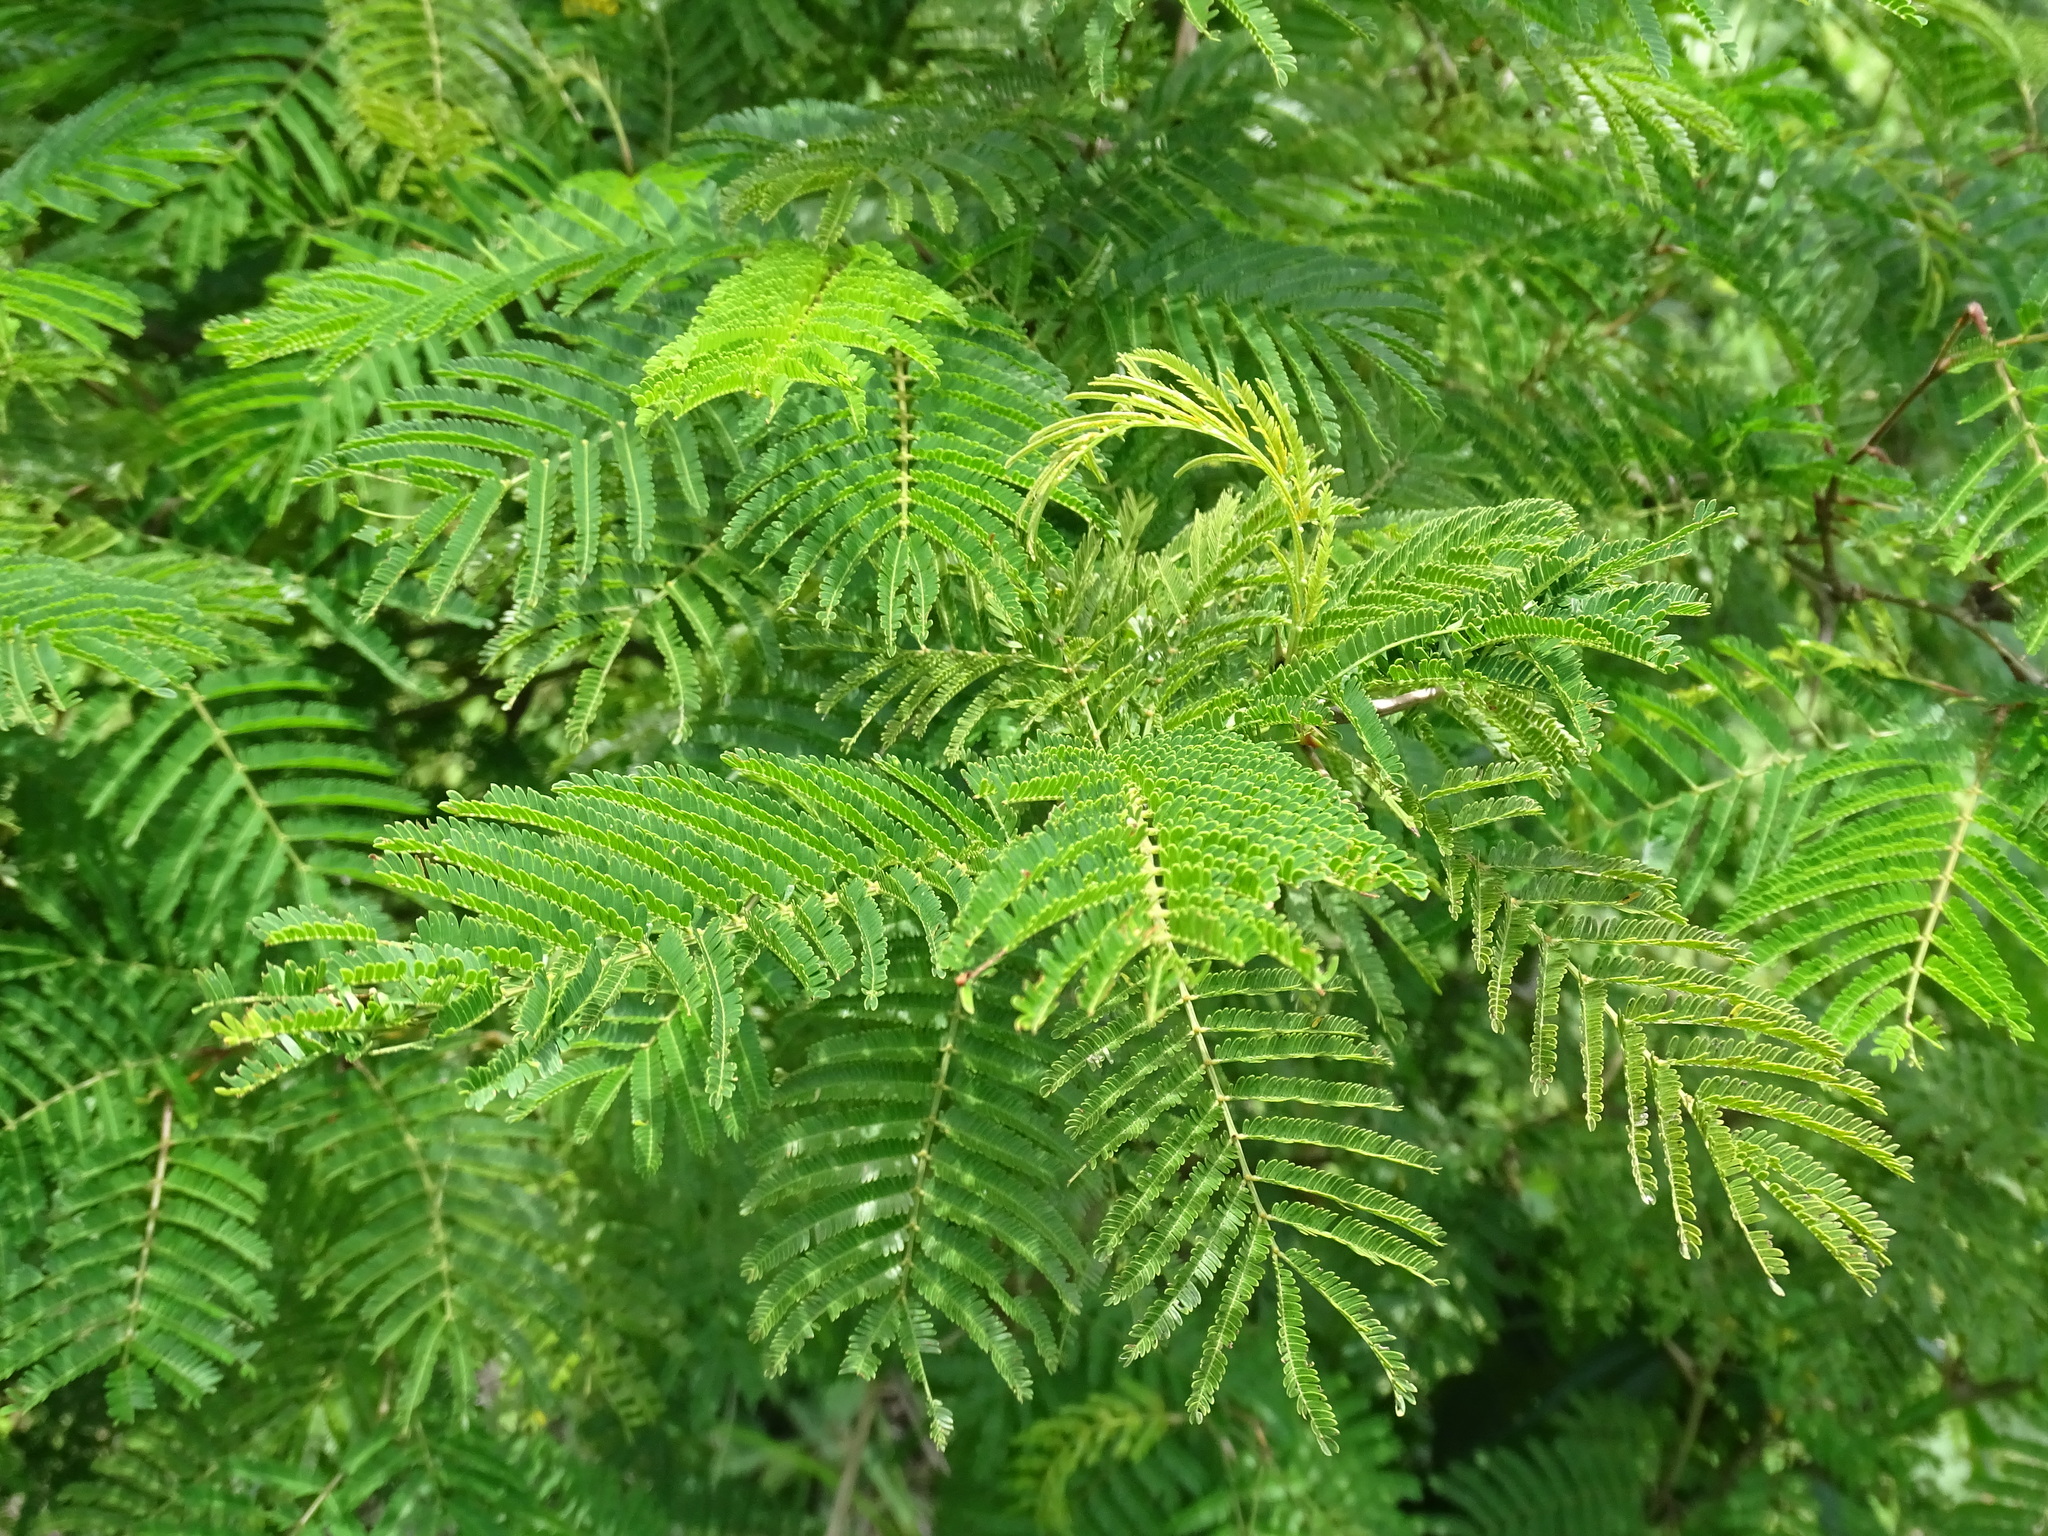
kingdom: Plantae
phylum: Tracheophyta
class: Magnoliopsida
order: Fabales
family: Fabaceae
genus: Vachellia
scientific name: Vachellia cornigera
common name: Bullhorn wattle
